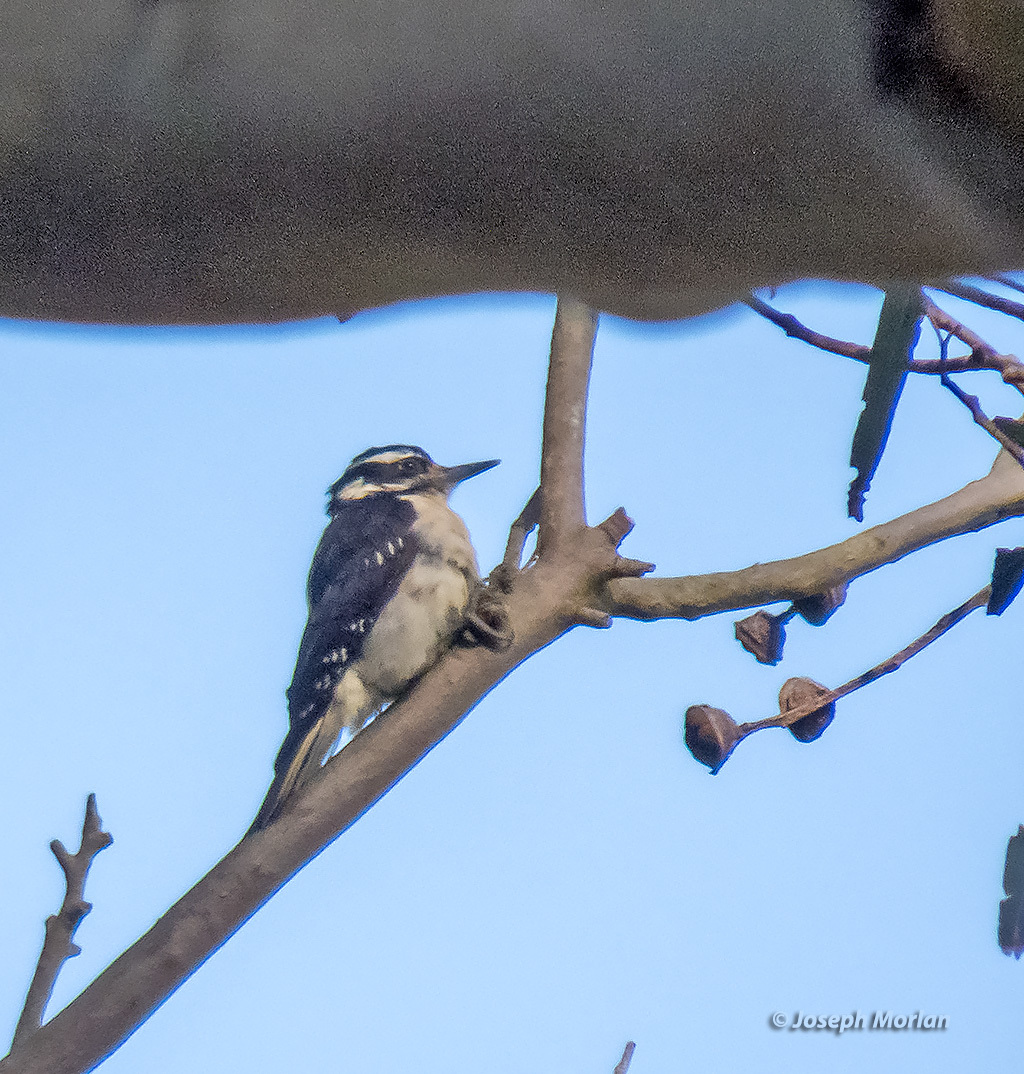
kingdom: Animalia
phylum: Chordata
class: Aves
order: Piciformes
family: Picidae
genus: Leuconotopicus
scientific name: Leuconotopicus villosus
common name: Hairy woodpecker
